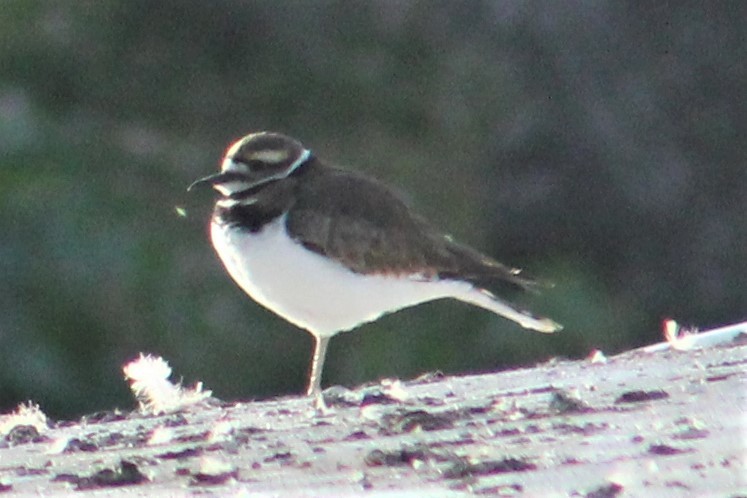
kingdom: Animalia
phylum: Chordata
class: Aves
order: Charadriiformes
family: Charadriidae
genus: Charadrius
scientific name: Charadrius vociferus
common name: Killdeer
